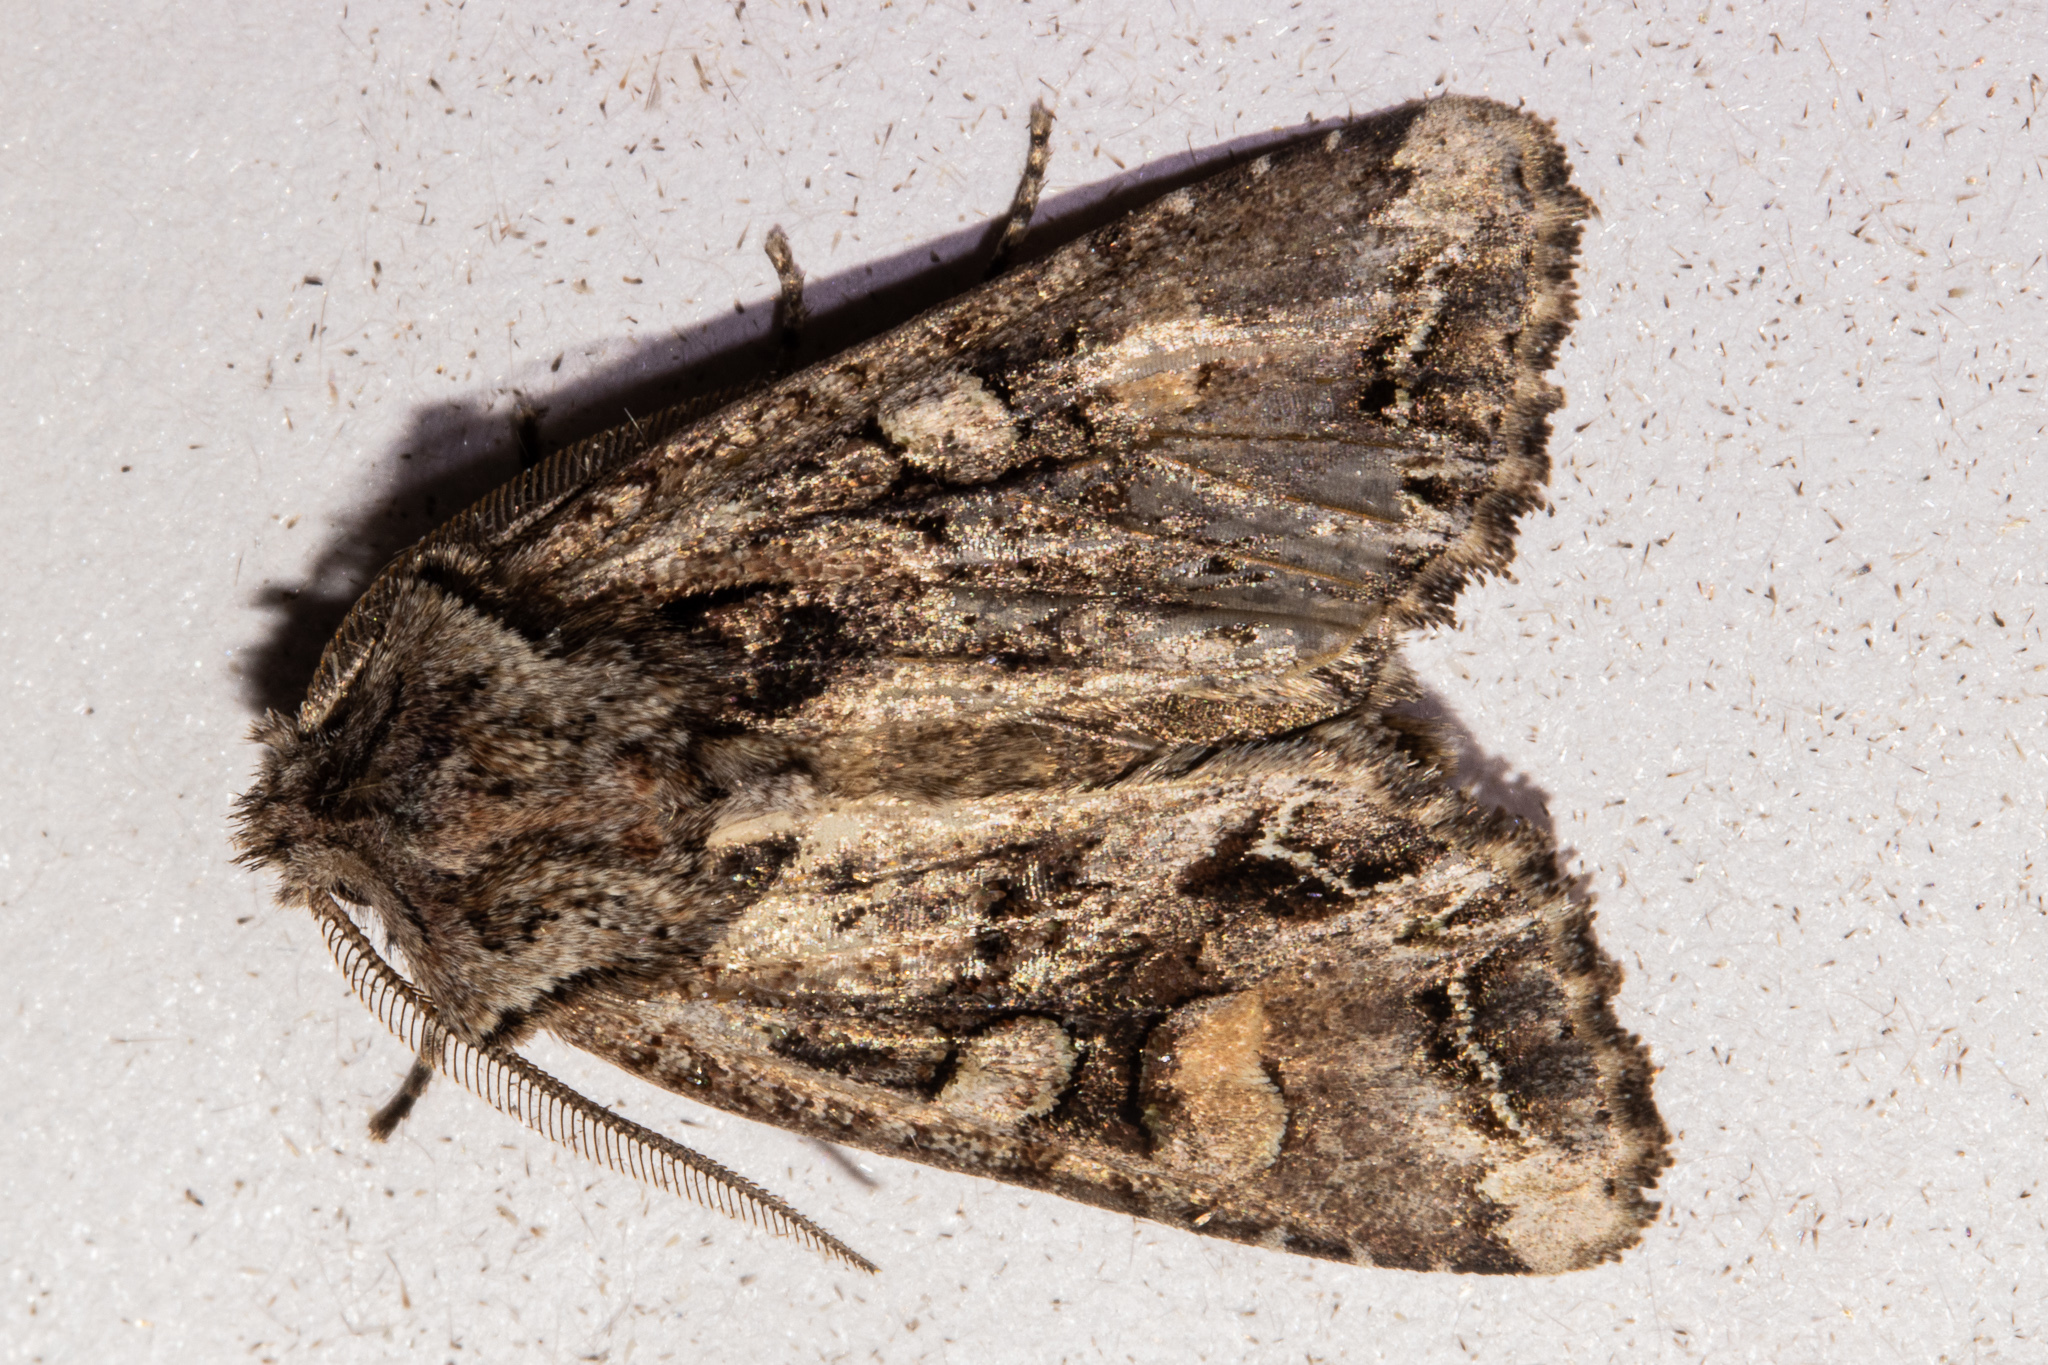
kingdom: Animalia
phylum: Arthropoda
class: Insecta
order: Lepidoptera
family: Noctuidae
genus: Ichneutica
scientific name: Ichneutica
